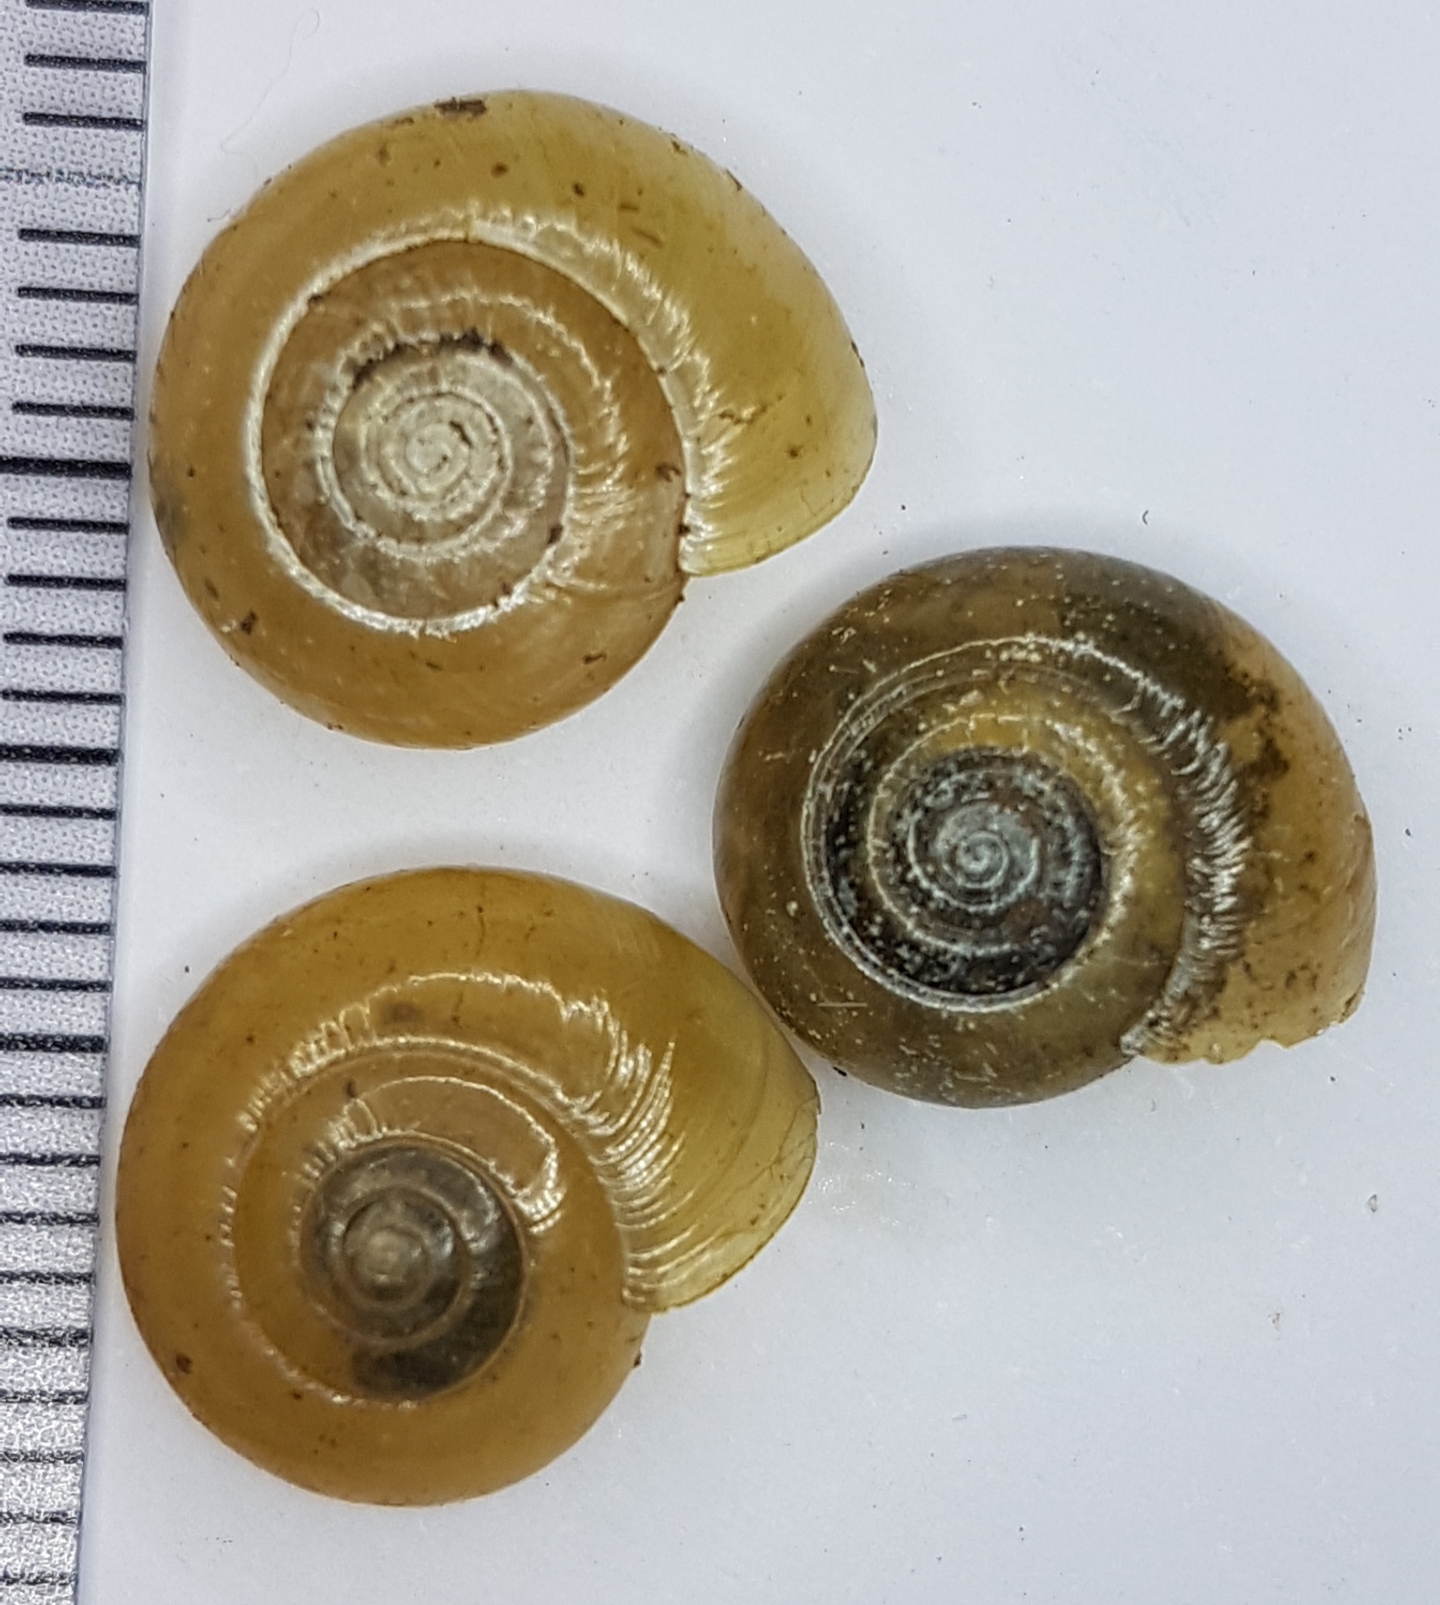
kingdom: Animalia
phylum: Mollusca
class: Gastropoda
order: Stylommatophora
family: Oxychilidae
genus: Oxychilus
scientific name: Oxychilus draparnaudi
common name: Draparnaud's glass snail
